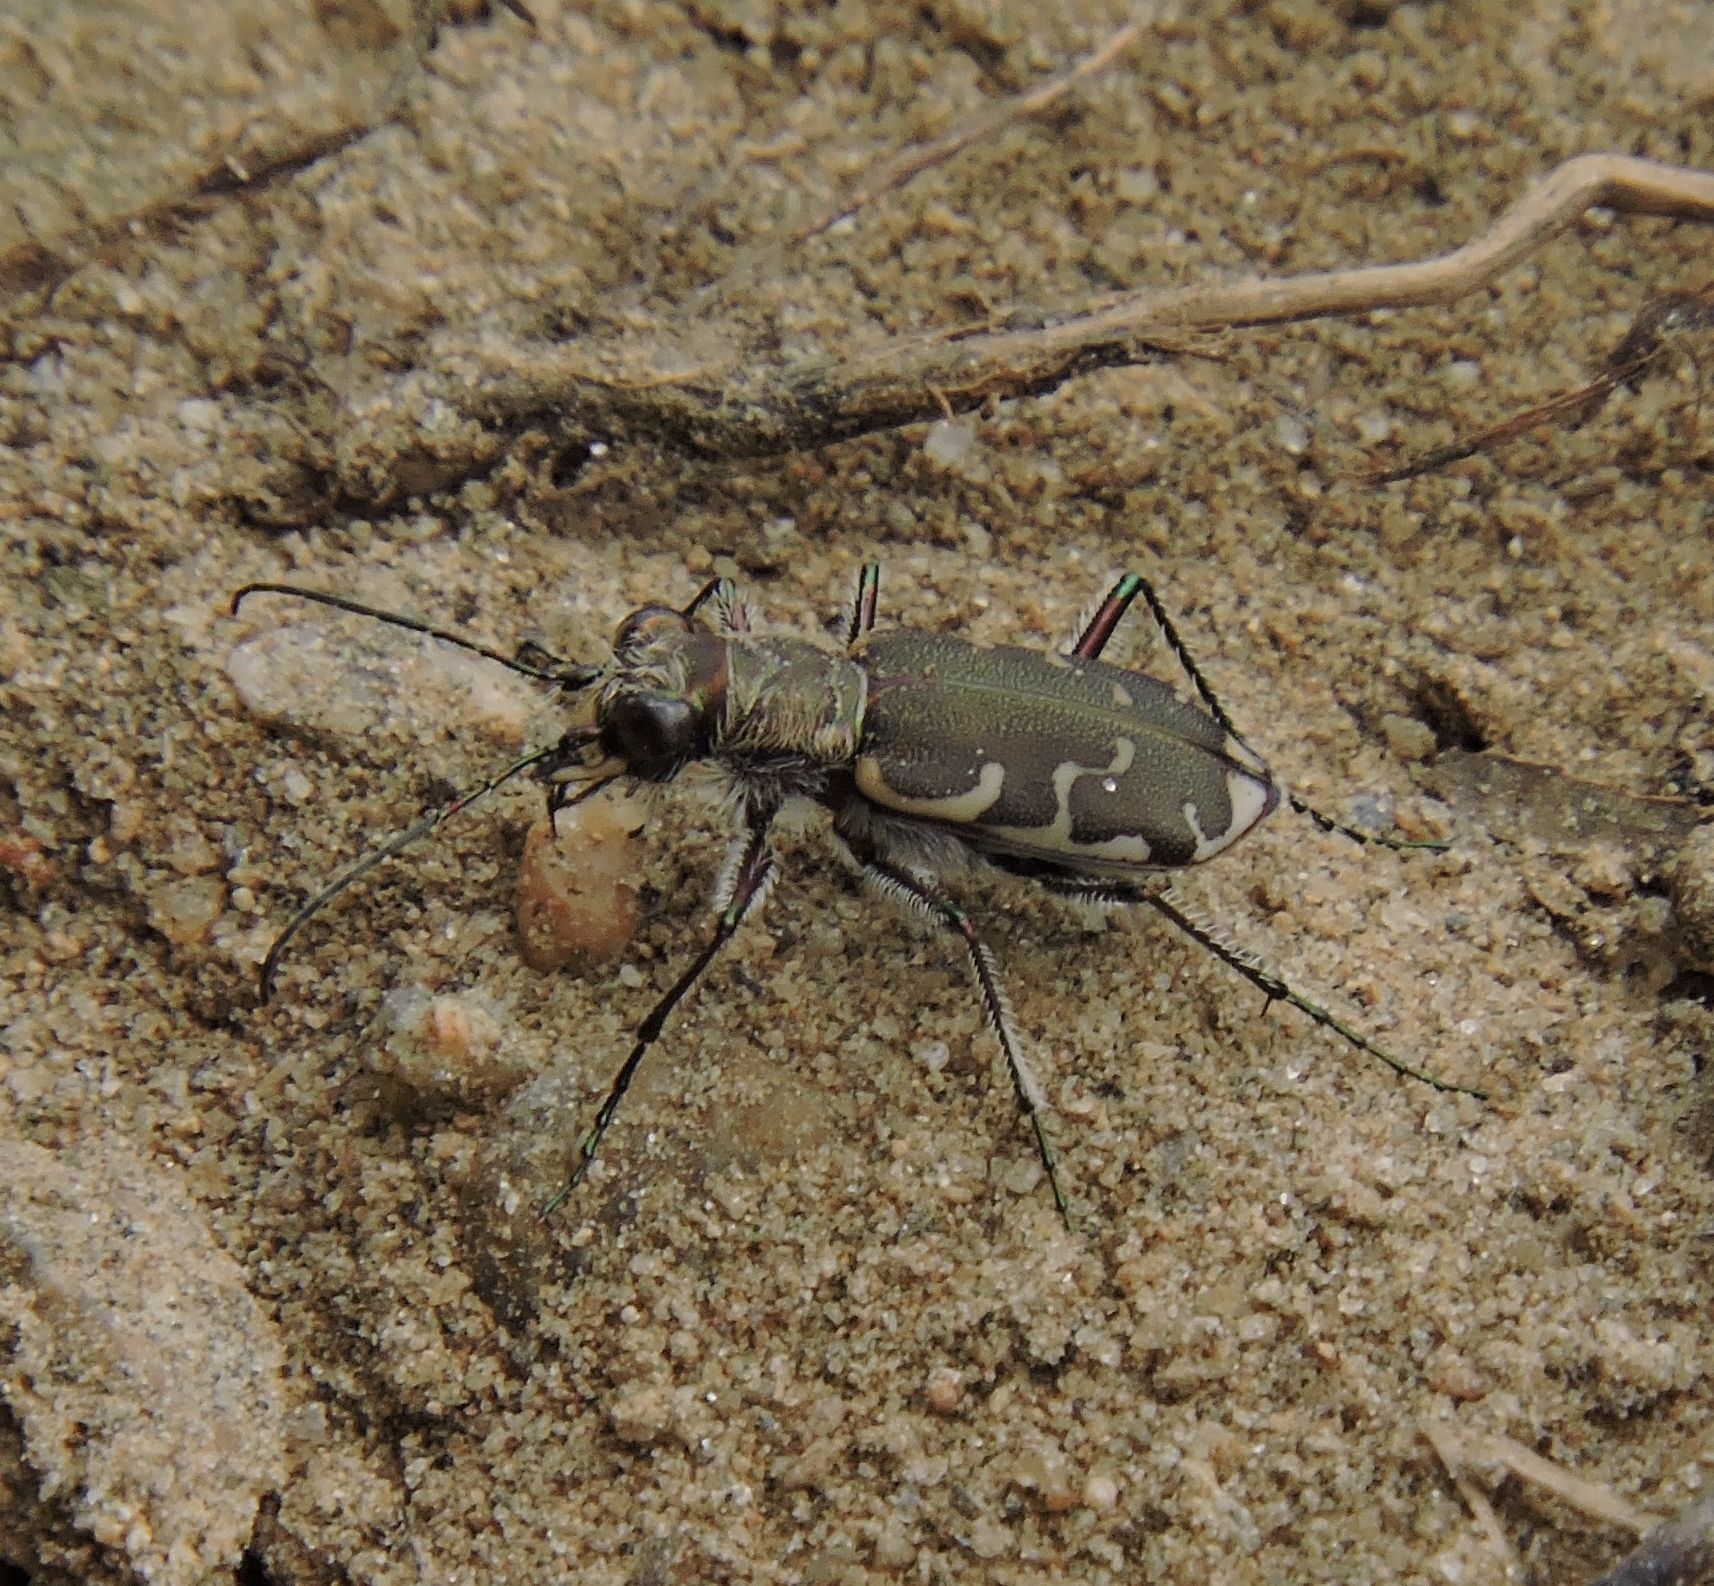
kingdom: Animalia
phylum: Arthropoda
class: Insecta
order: Coleoptera
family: Carabidae
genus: Cicindela
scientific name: Cicindela repanda
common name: Bronzed tiger beetle
